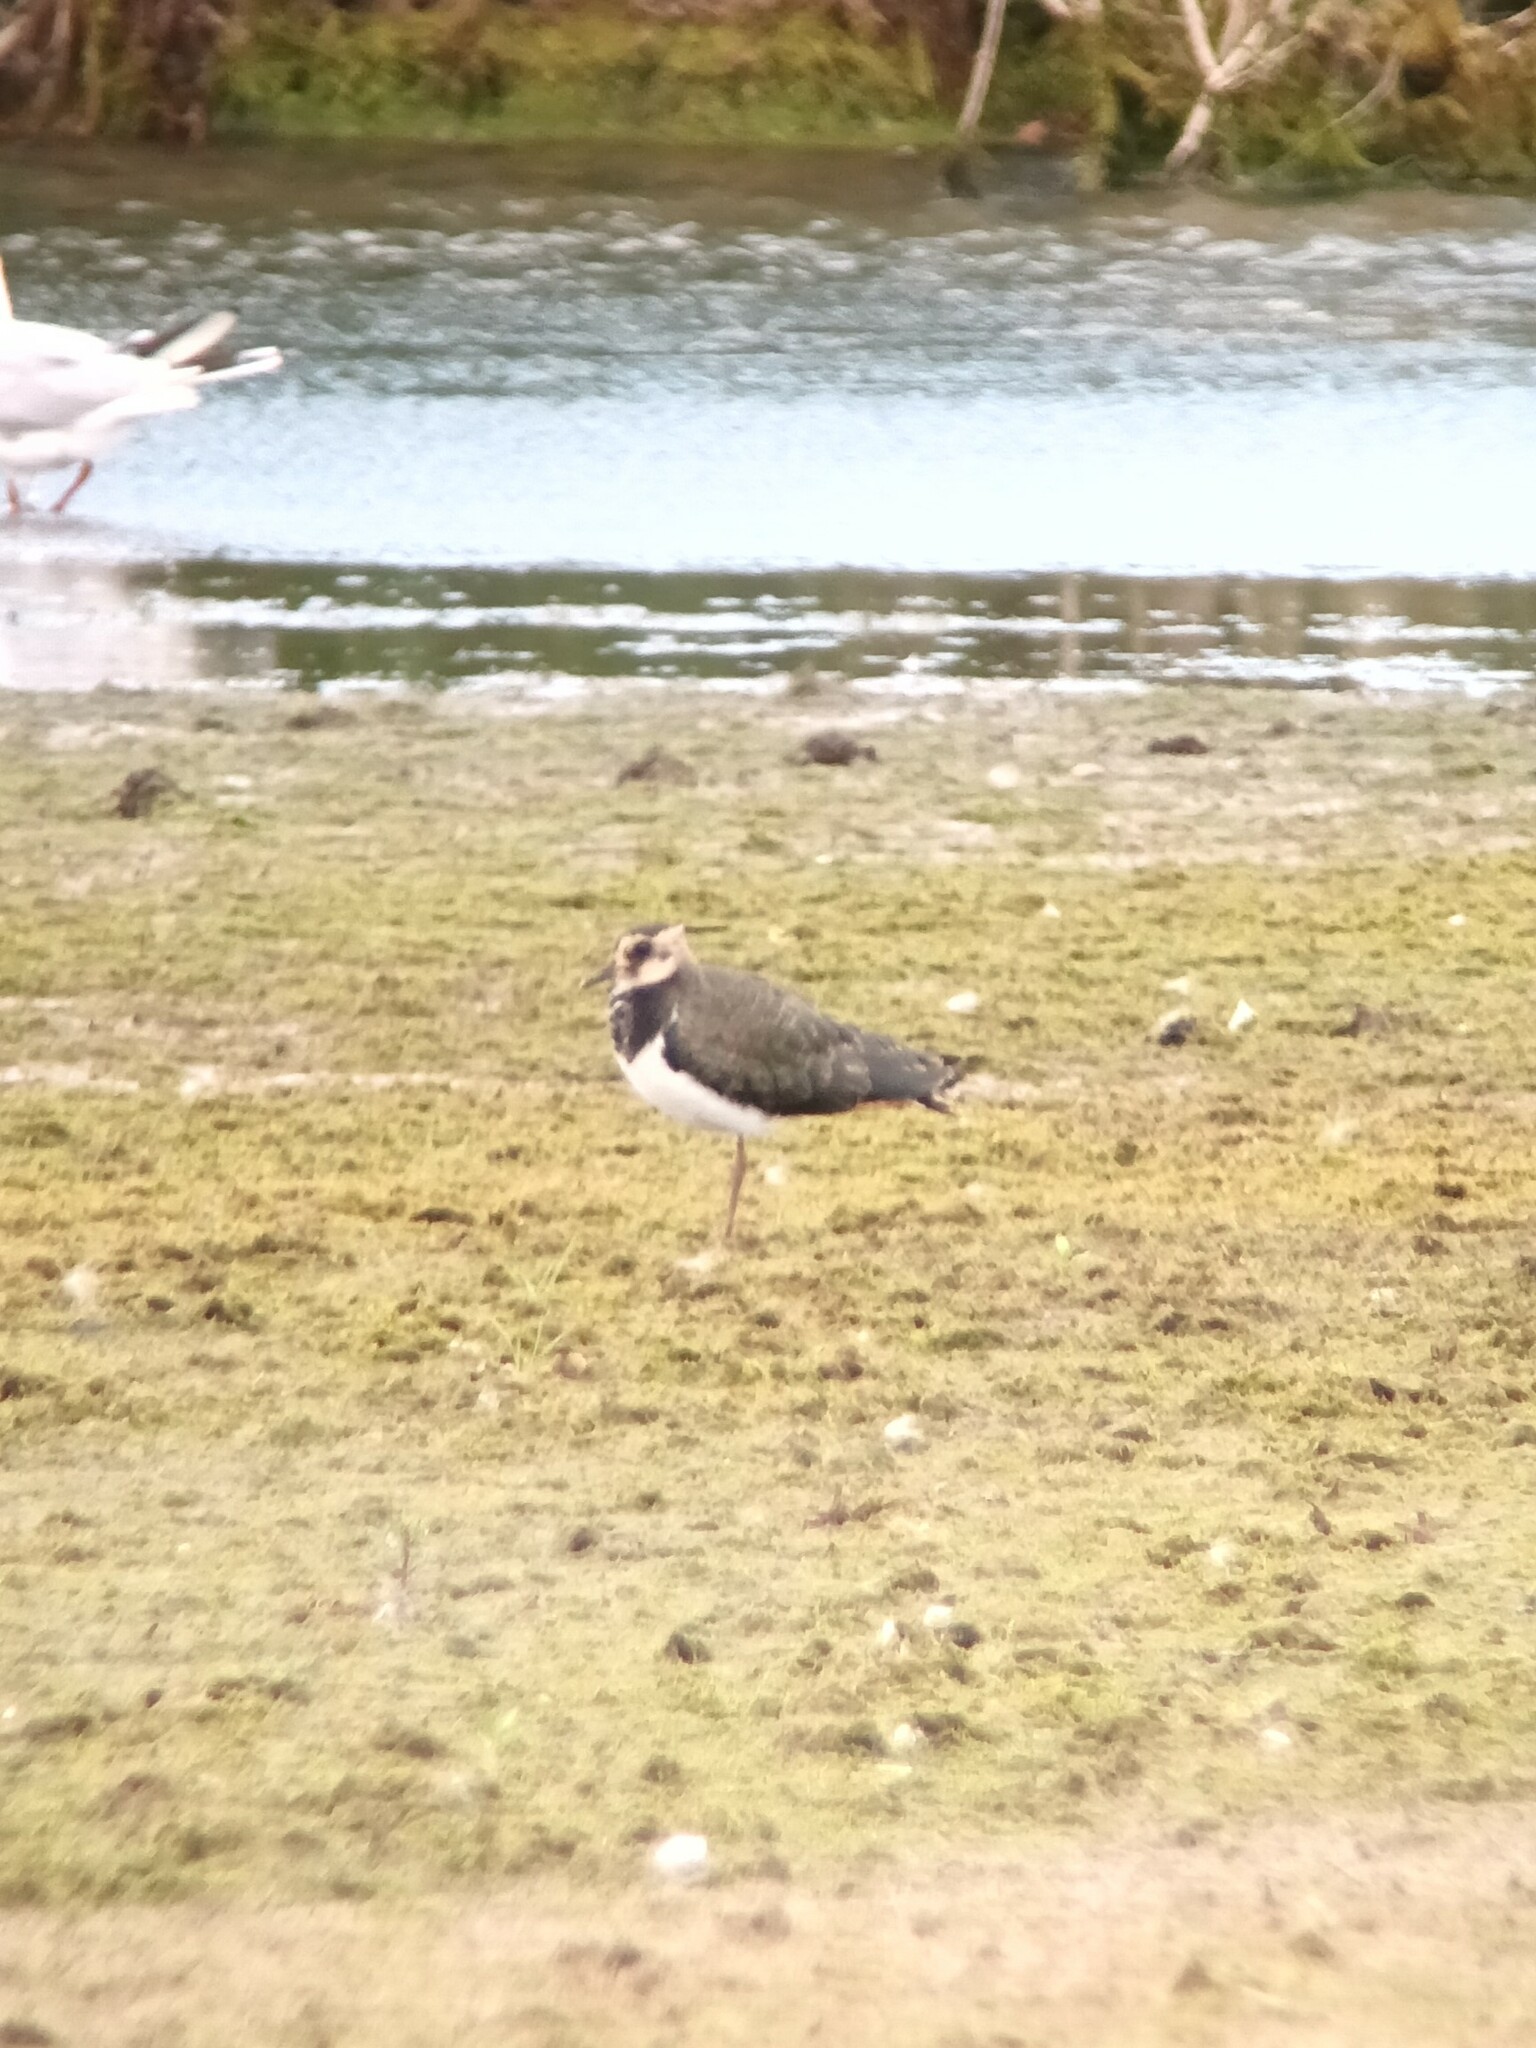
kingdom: Animalia
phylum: Chordata
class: Aves
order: Charadriiformes
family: Charadriidae
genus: Vanellus
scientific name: Vanellus vanellus
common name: Northern lapwing
